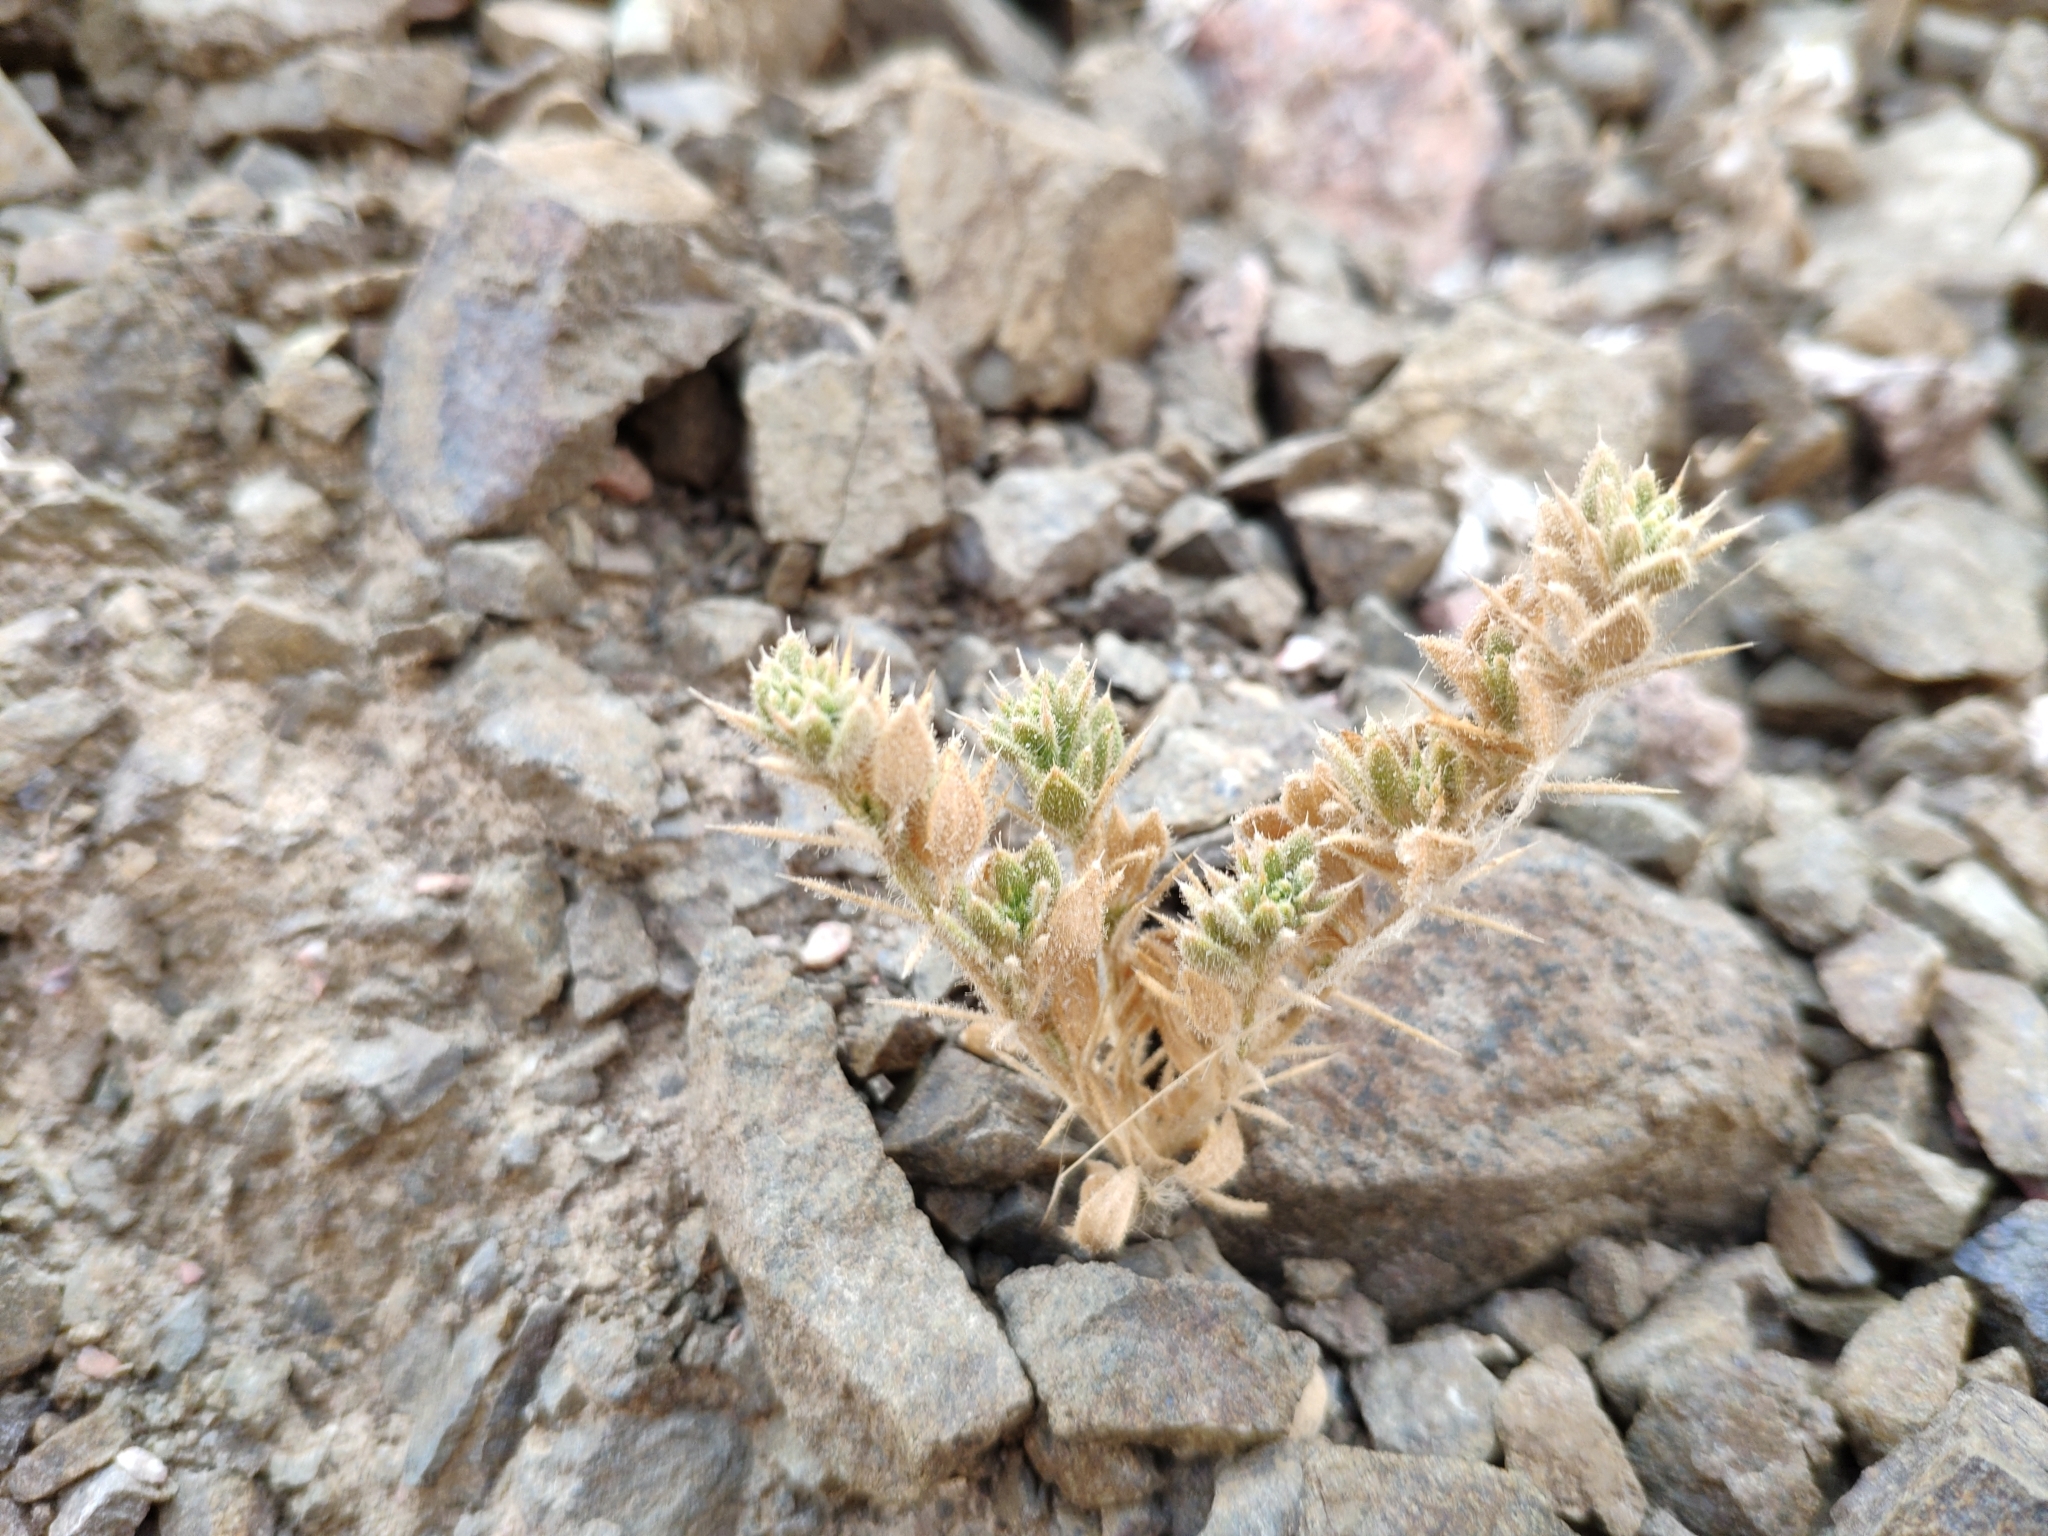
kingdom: Plantae
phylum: Tracheophyta
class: Magnoliopsida
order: Zygophyllales
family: Zygophyllaceae
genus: Fagonia
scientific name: Fagonia mollis
